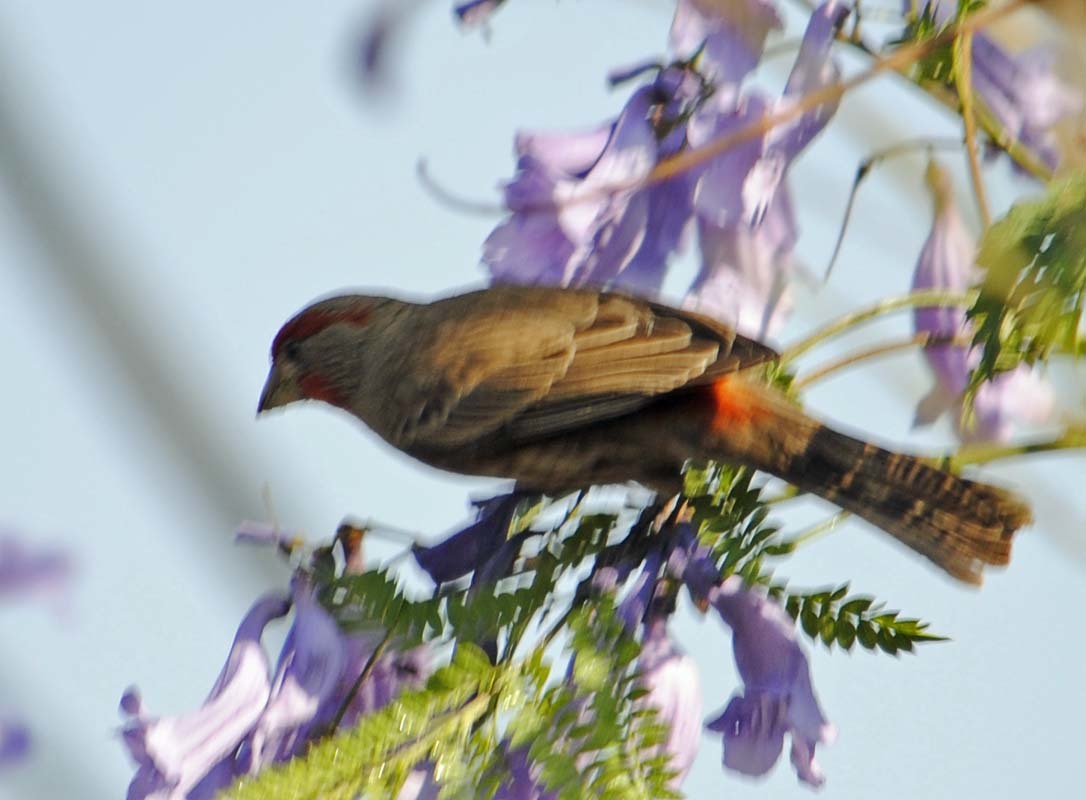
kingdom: Animalia
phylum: Chordata
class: Aves
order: Passeriformes
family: Fringillidae
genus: Haemorhous
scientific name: Haemorhous mexicanus
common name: House finch
